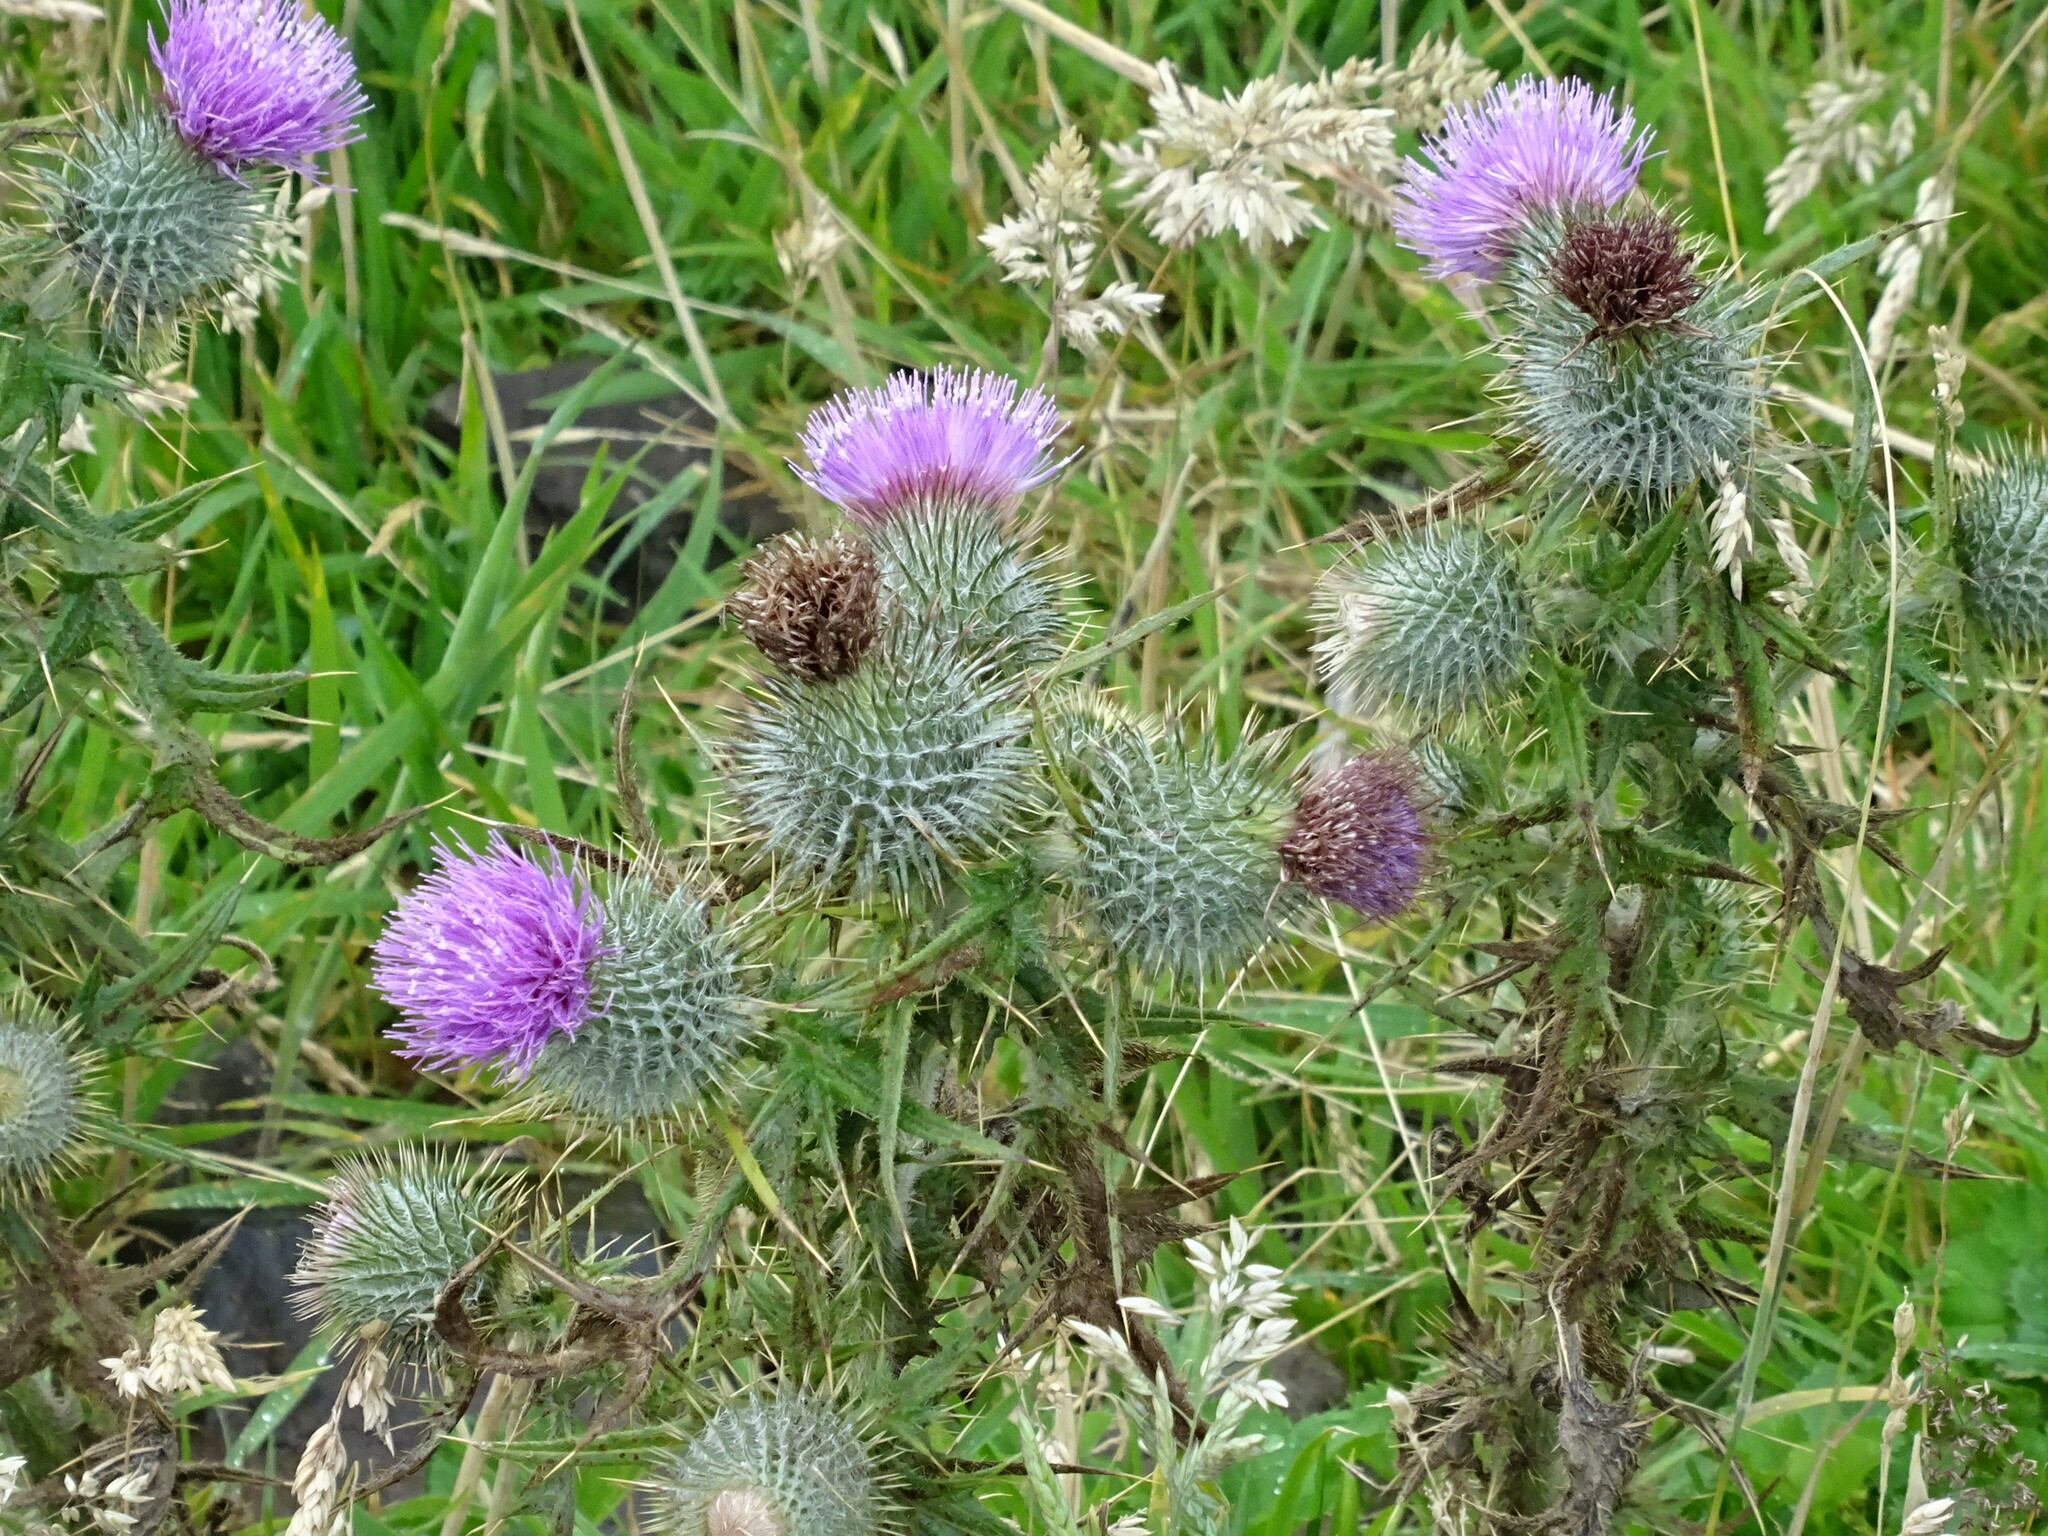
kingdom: Plantae
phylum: Tracheophyta
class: Magnoliopsida
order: Asterales
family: Asteraceae
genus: Cirsium
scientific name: Cirsium vulgare
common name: Bull thistle
